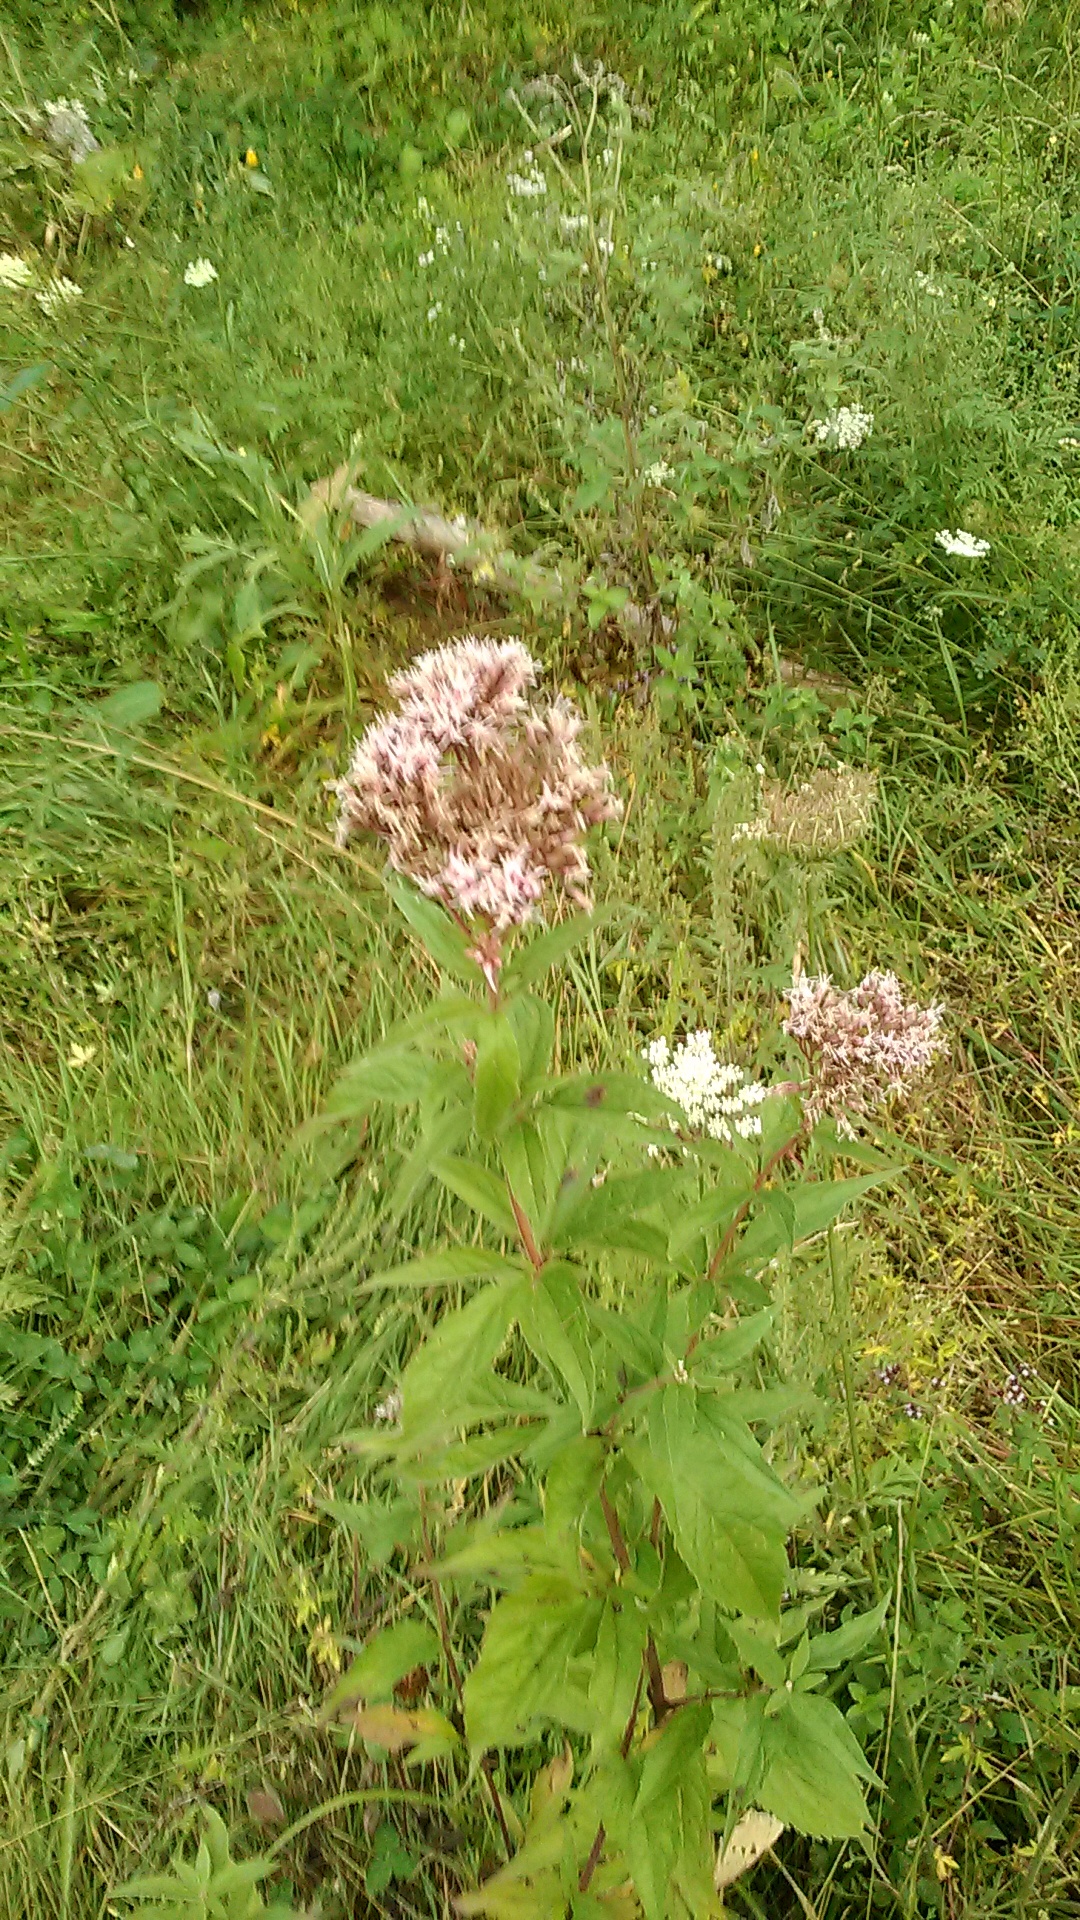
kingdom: Plantae
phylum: Tracheophyta
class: Magnoliopsida
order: Asterales
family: Asteraceae
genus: Eupatorium
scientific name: Eupatorium cannabinum
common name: Hemp-agrimony
